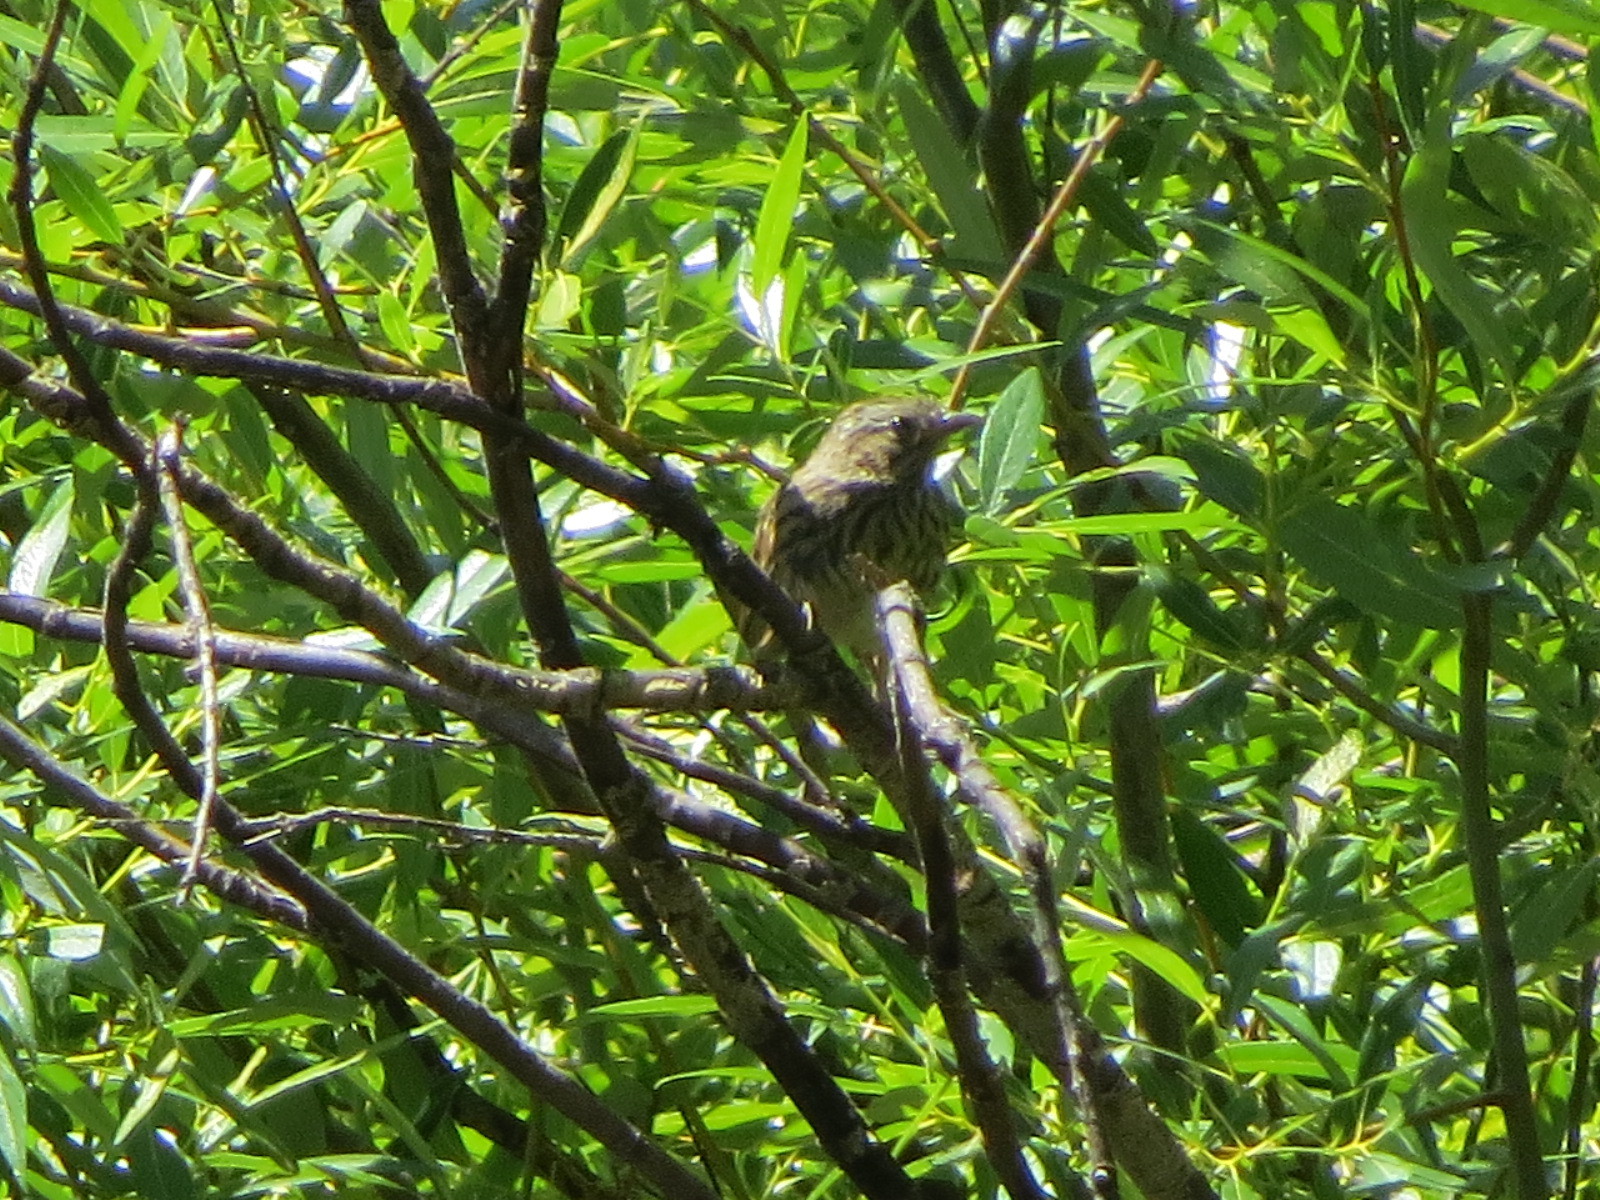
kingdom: Animalia
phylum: Chordata
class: Aves
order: Passeriformes
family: Passerellidae
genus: Melospiza
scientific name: Melospiza melodia
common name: Song sparrow
